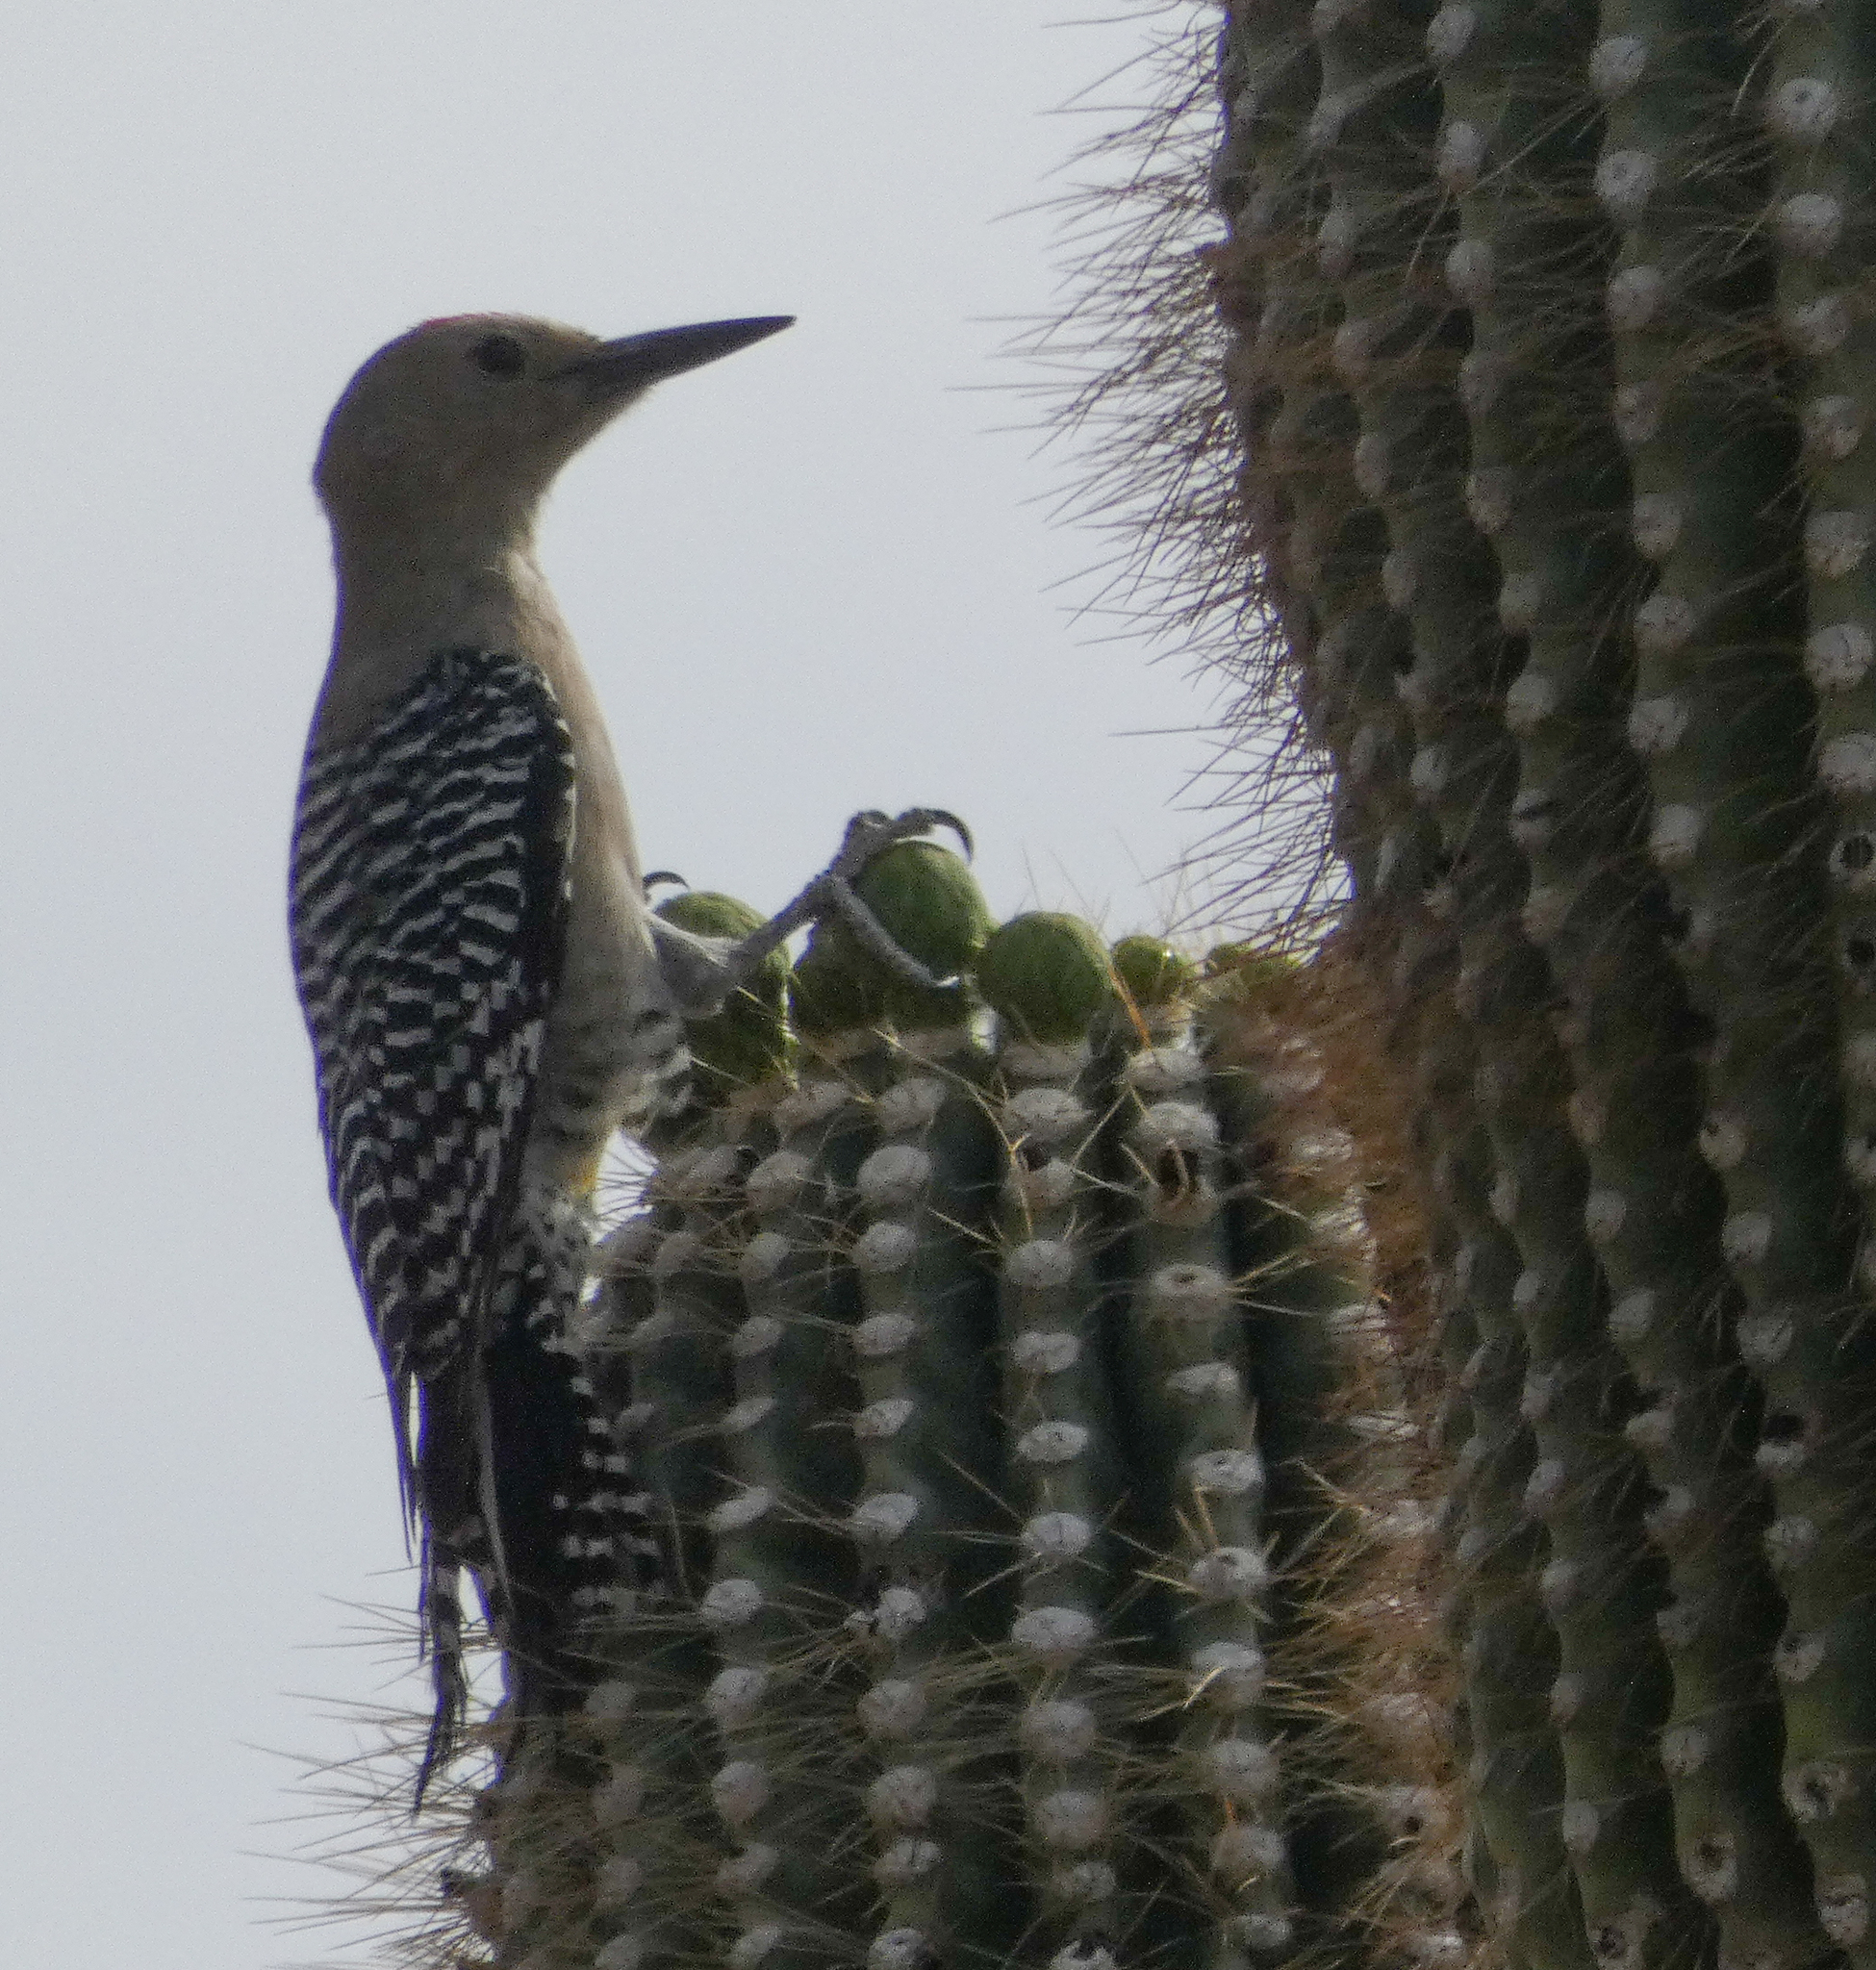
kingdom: Animalia
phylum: Chordata
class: Aves
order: Piciformes
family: Picidae
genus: Melanerpes
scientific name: Melanerpes uropygialis
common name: Gila woodpecker
